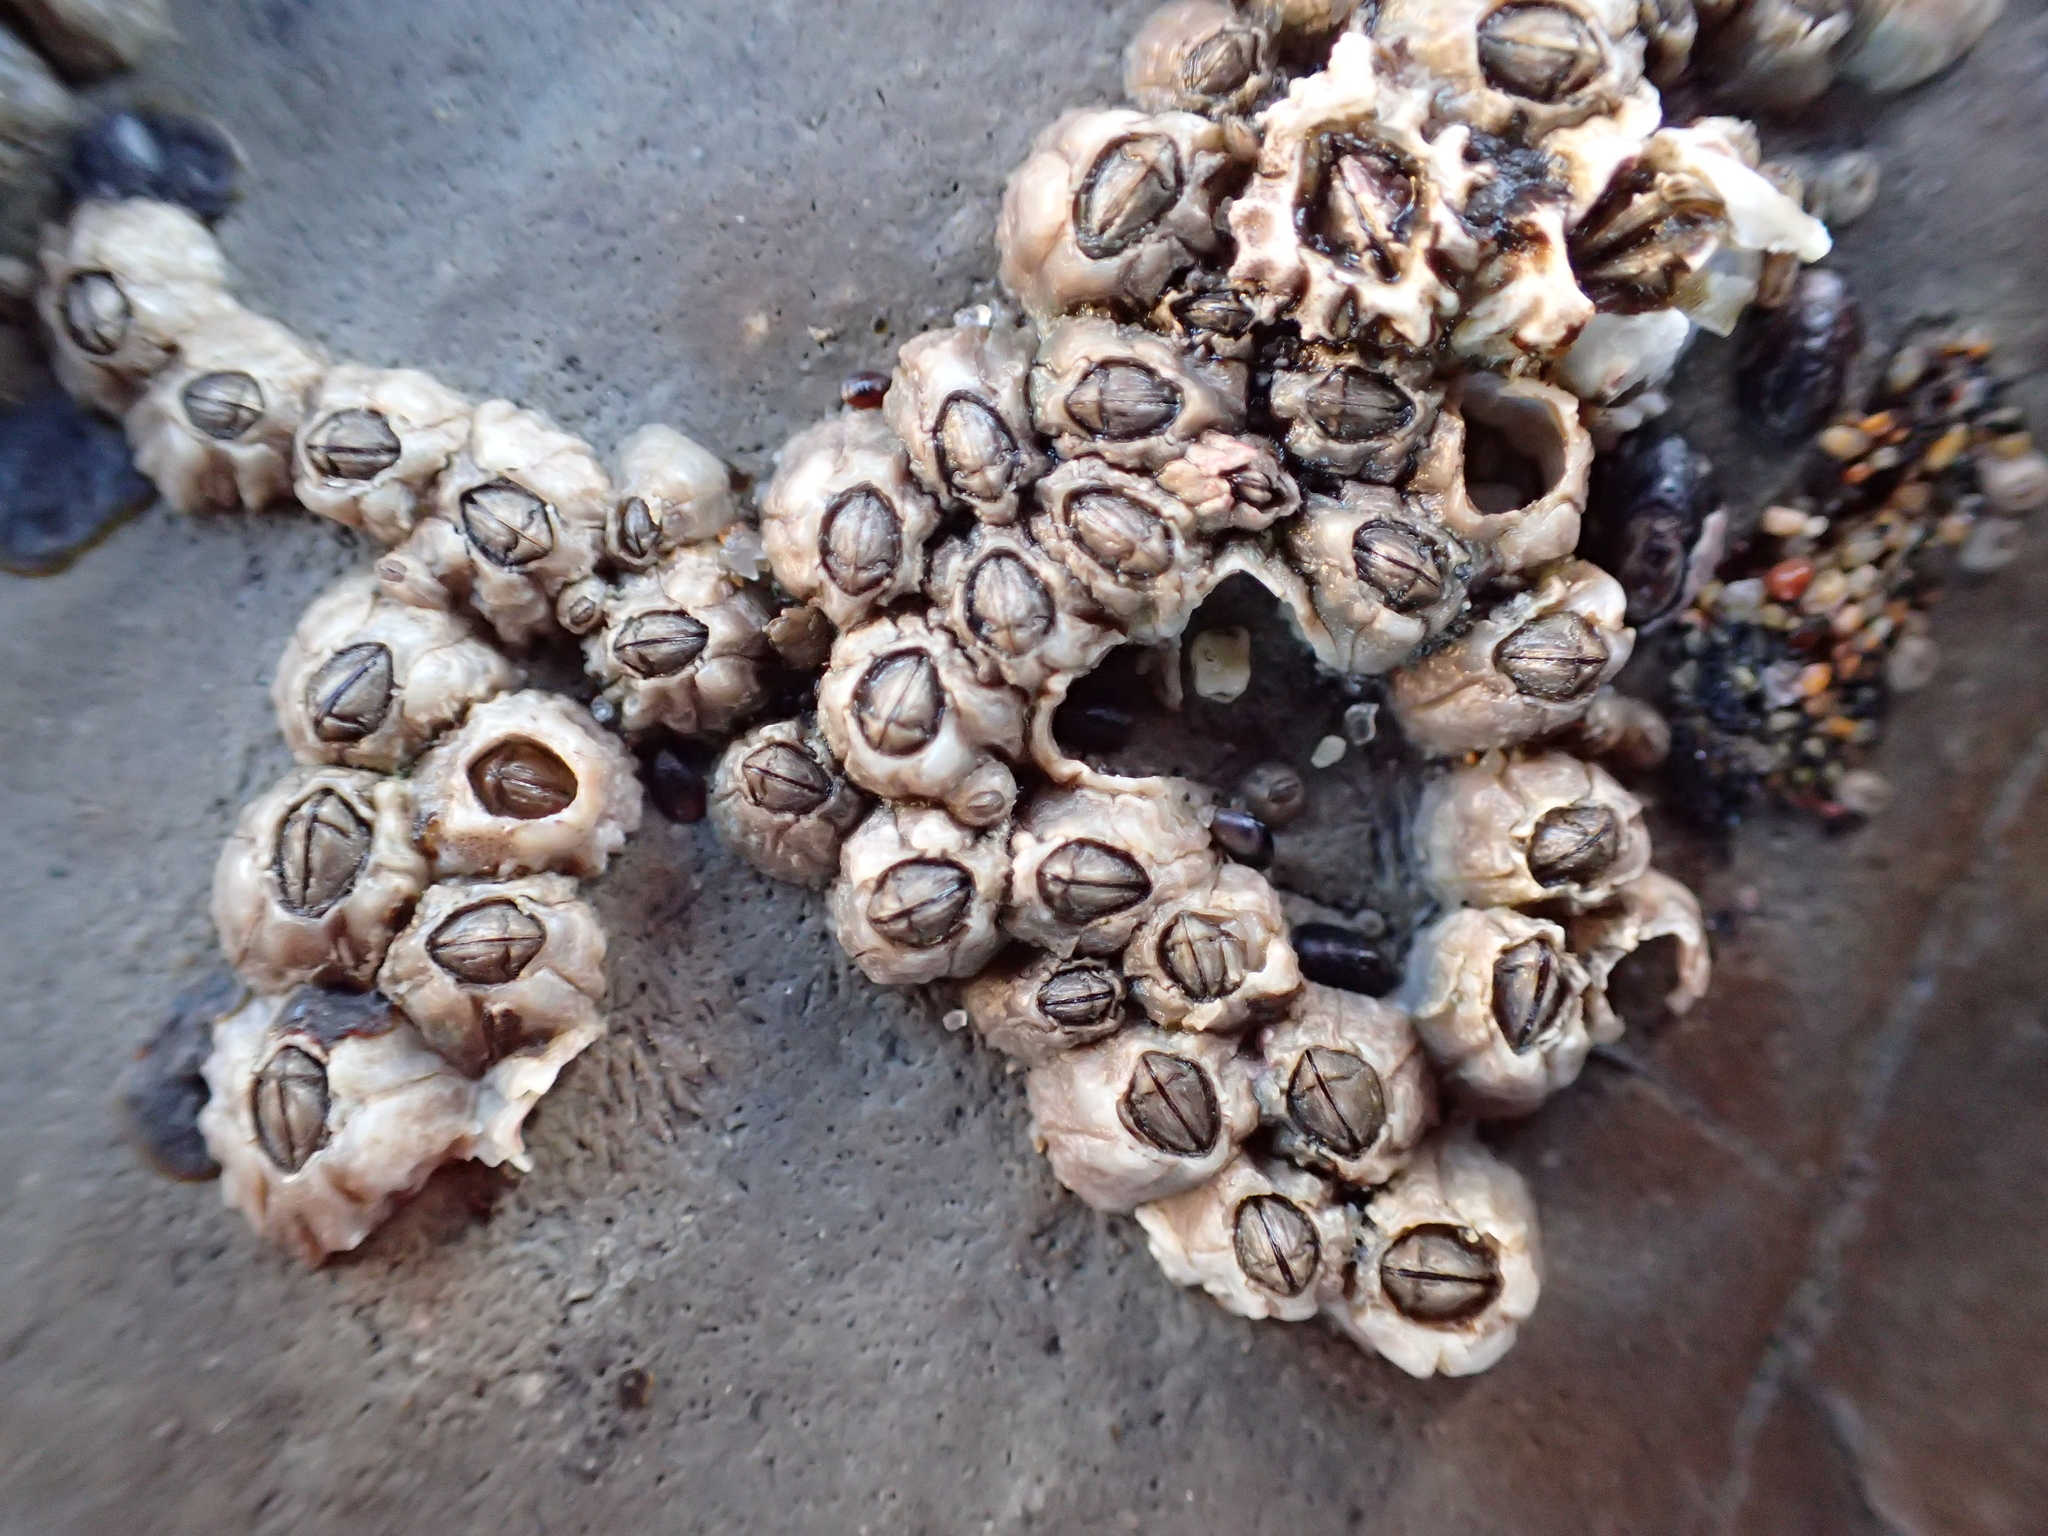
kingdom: Animalia
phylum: Arthropoda
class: Maxillopoda
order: Sessilia
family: Balanidae
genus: Balanus
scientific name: Balanus glandula
